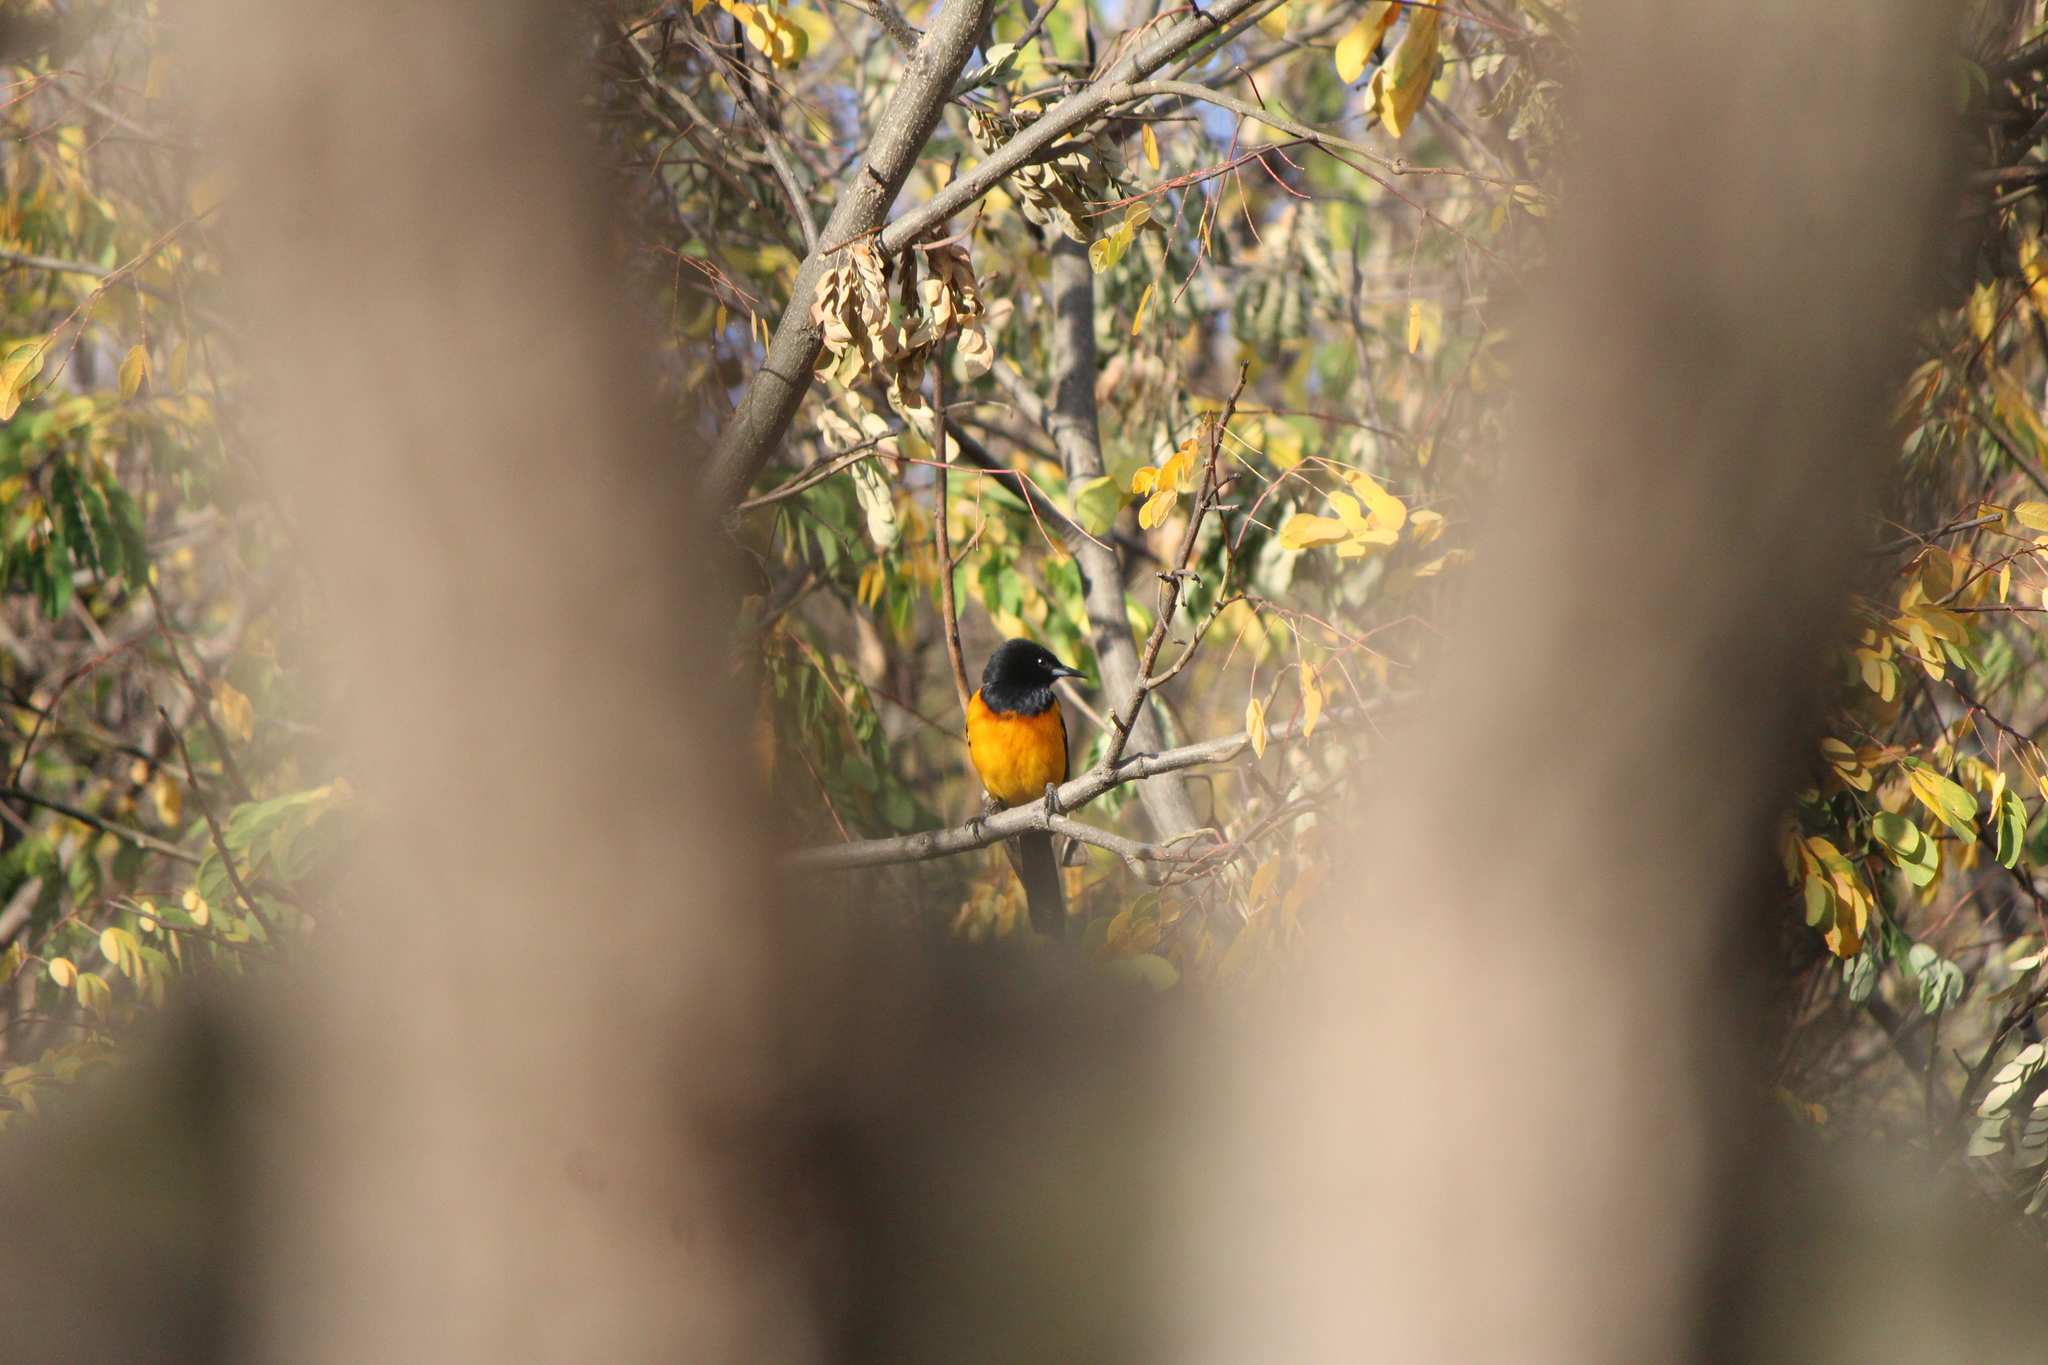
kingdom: Animalia
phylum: Chordata
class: Aves
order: Passeriformes
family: Icteridae
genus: Icterus
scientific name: Icterus wagleri
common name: Black-vented oriole
